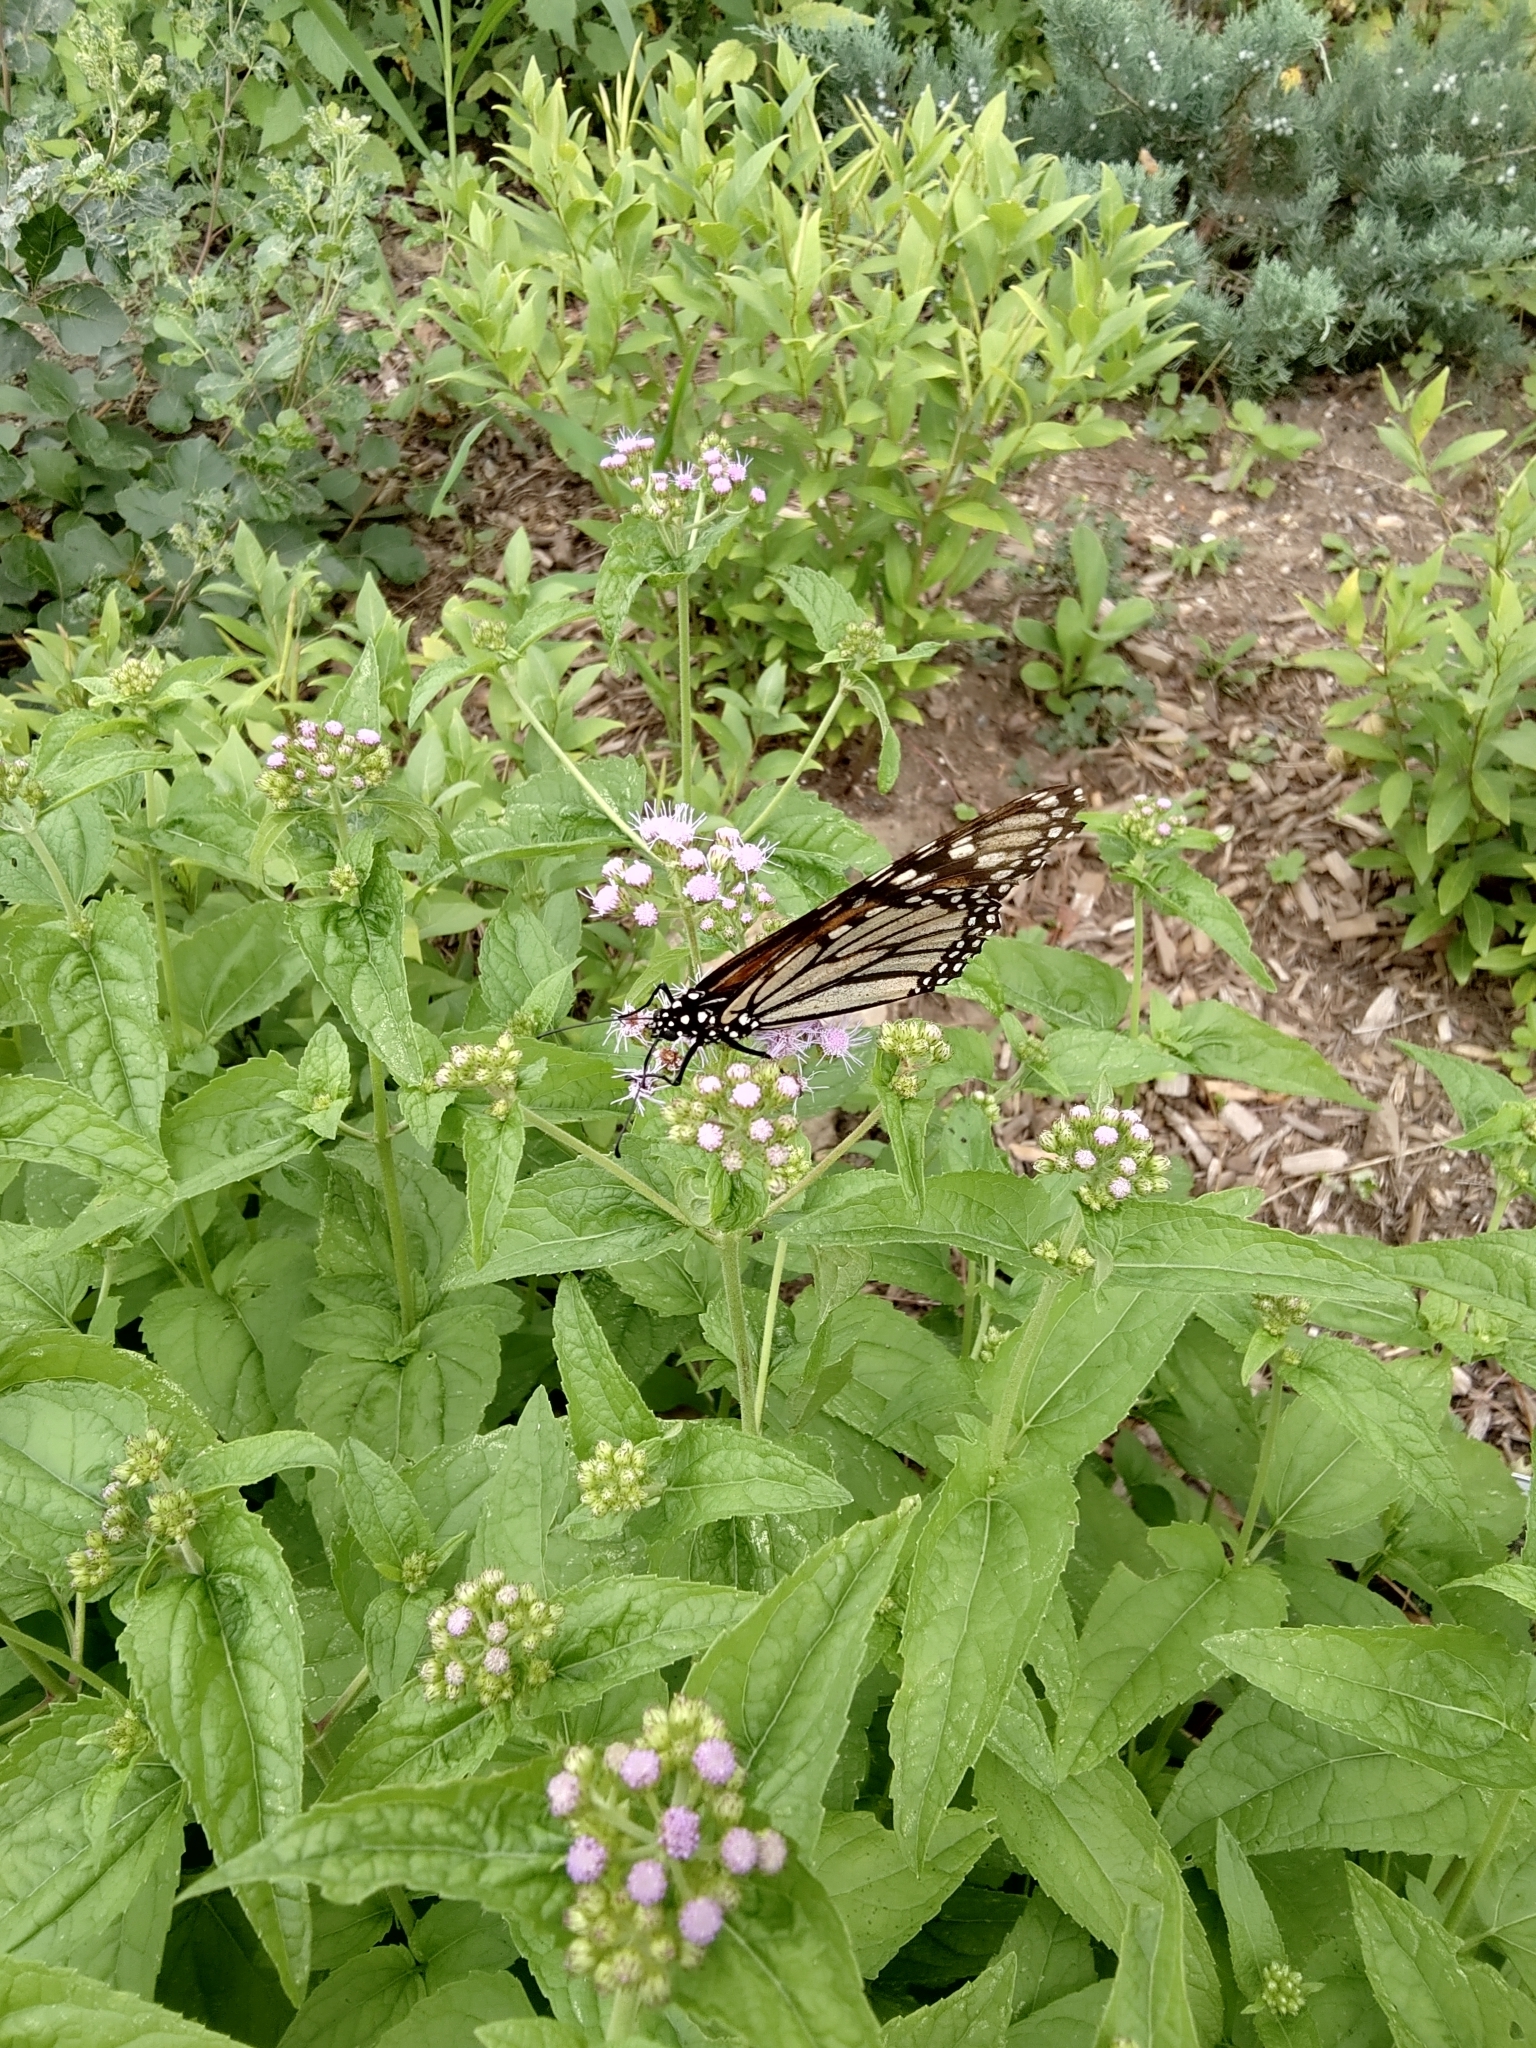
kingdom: Animalia
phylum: Arthropoda
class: Insecta
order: Lepidoptera
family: Nymphalidae
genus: Danaus
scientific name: Danaus plexippus
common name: Monarch
